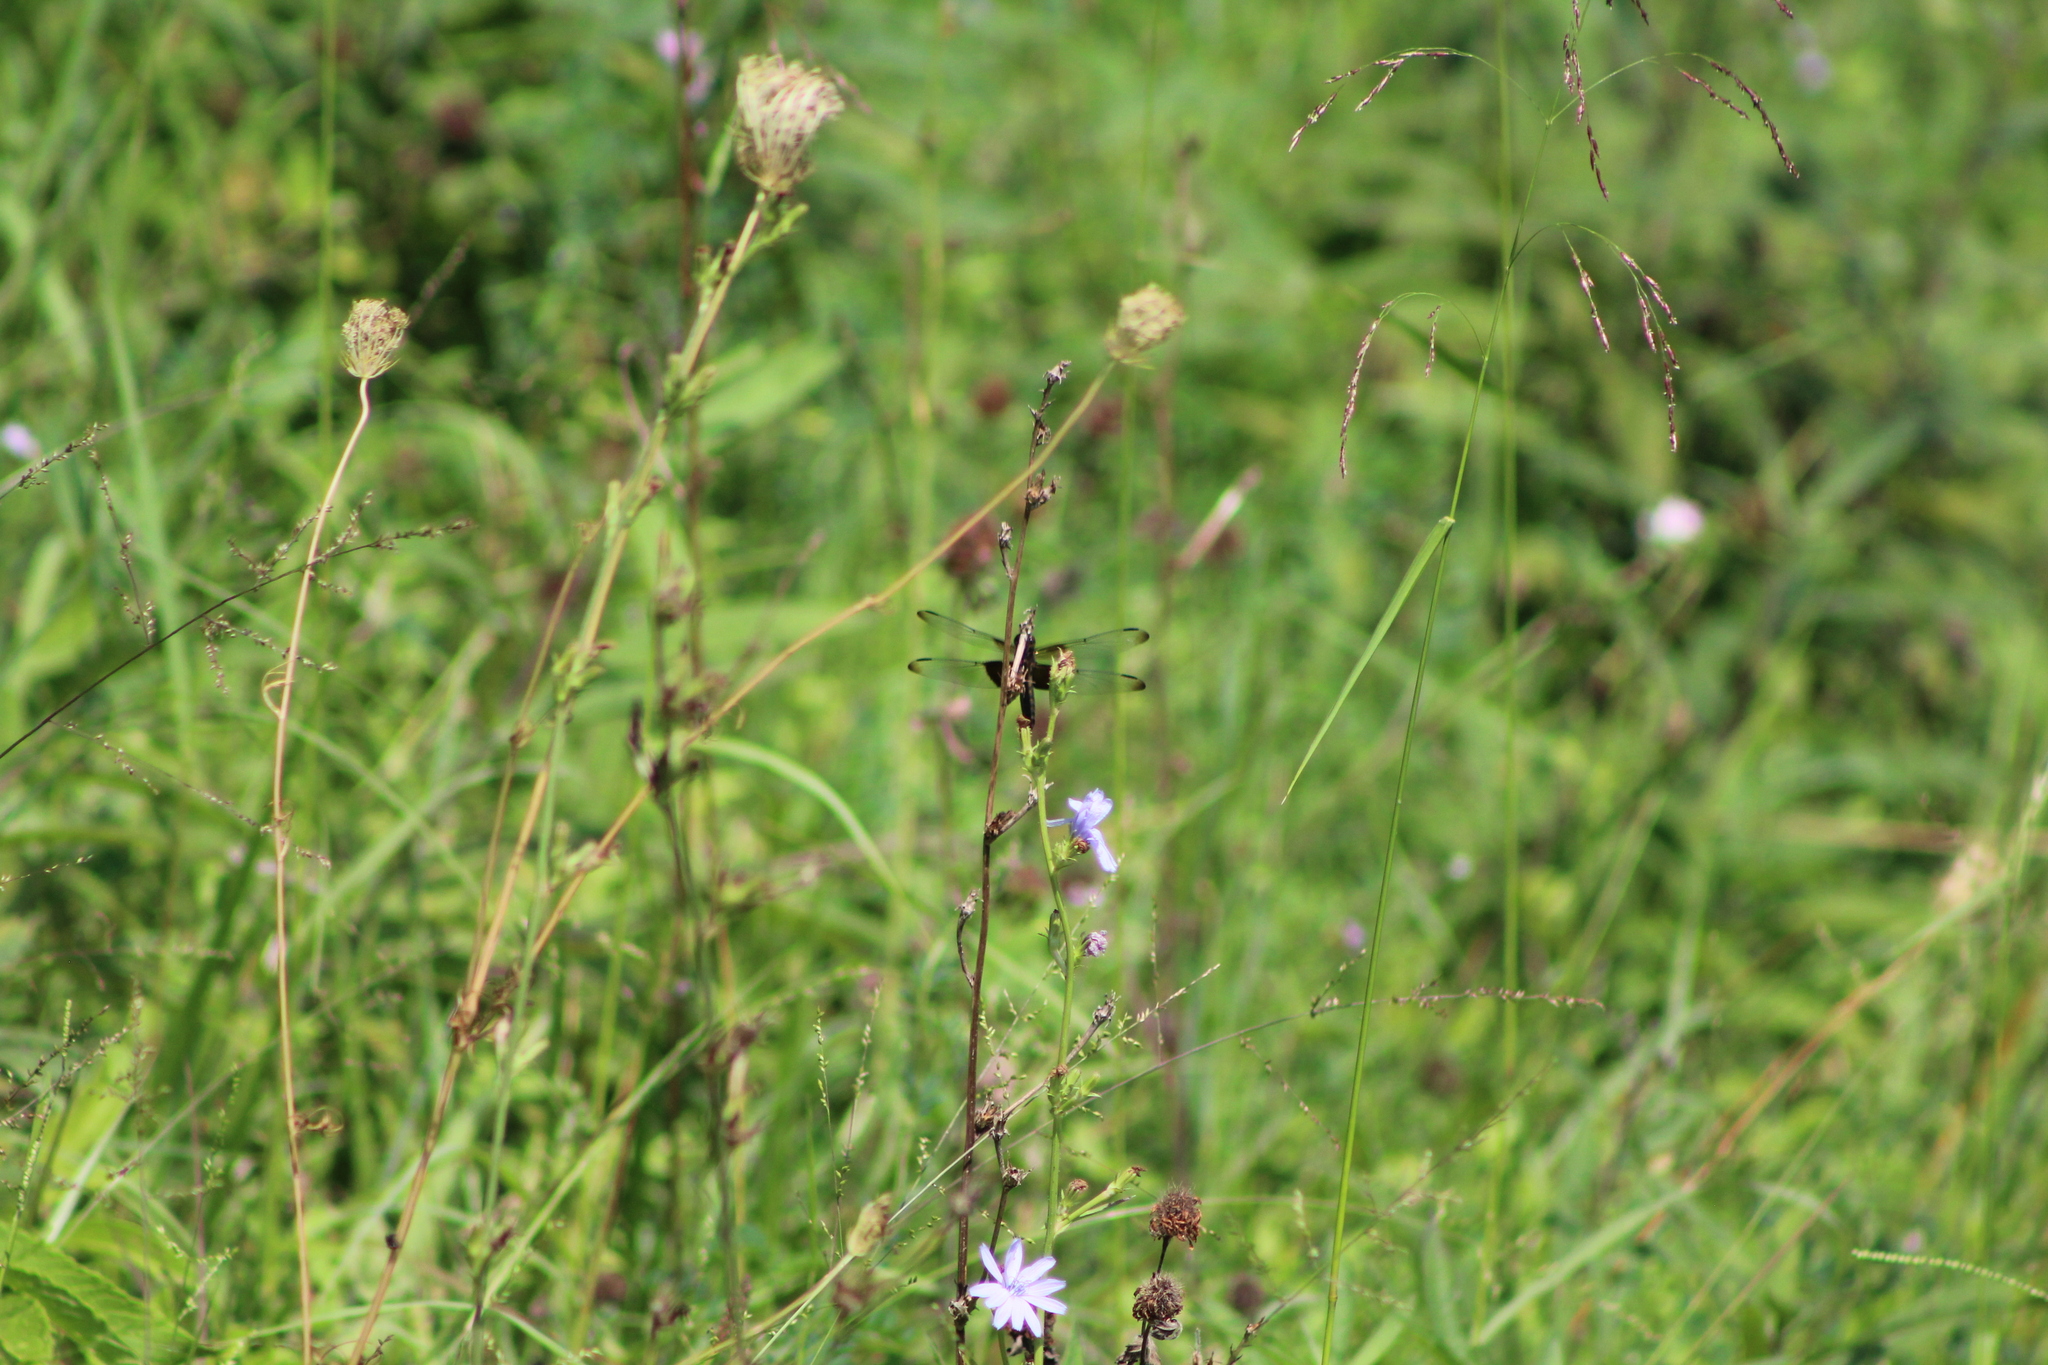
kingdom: Animalia
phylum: Arthropoda
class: Insecta
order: Odonata
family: Libellulidae
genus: Libellula
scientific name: Libellula luctuosa
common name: Widow skimmer
